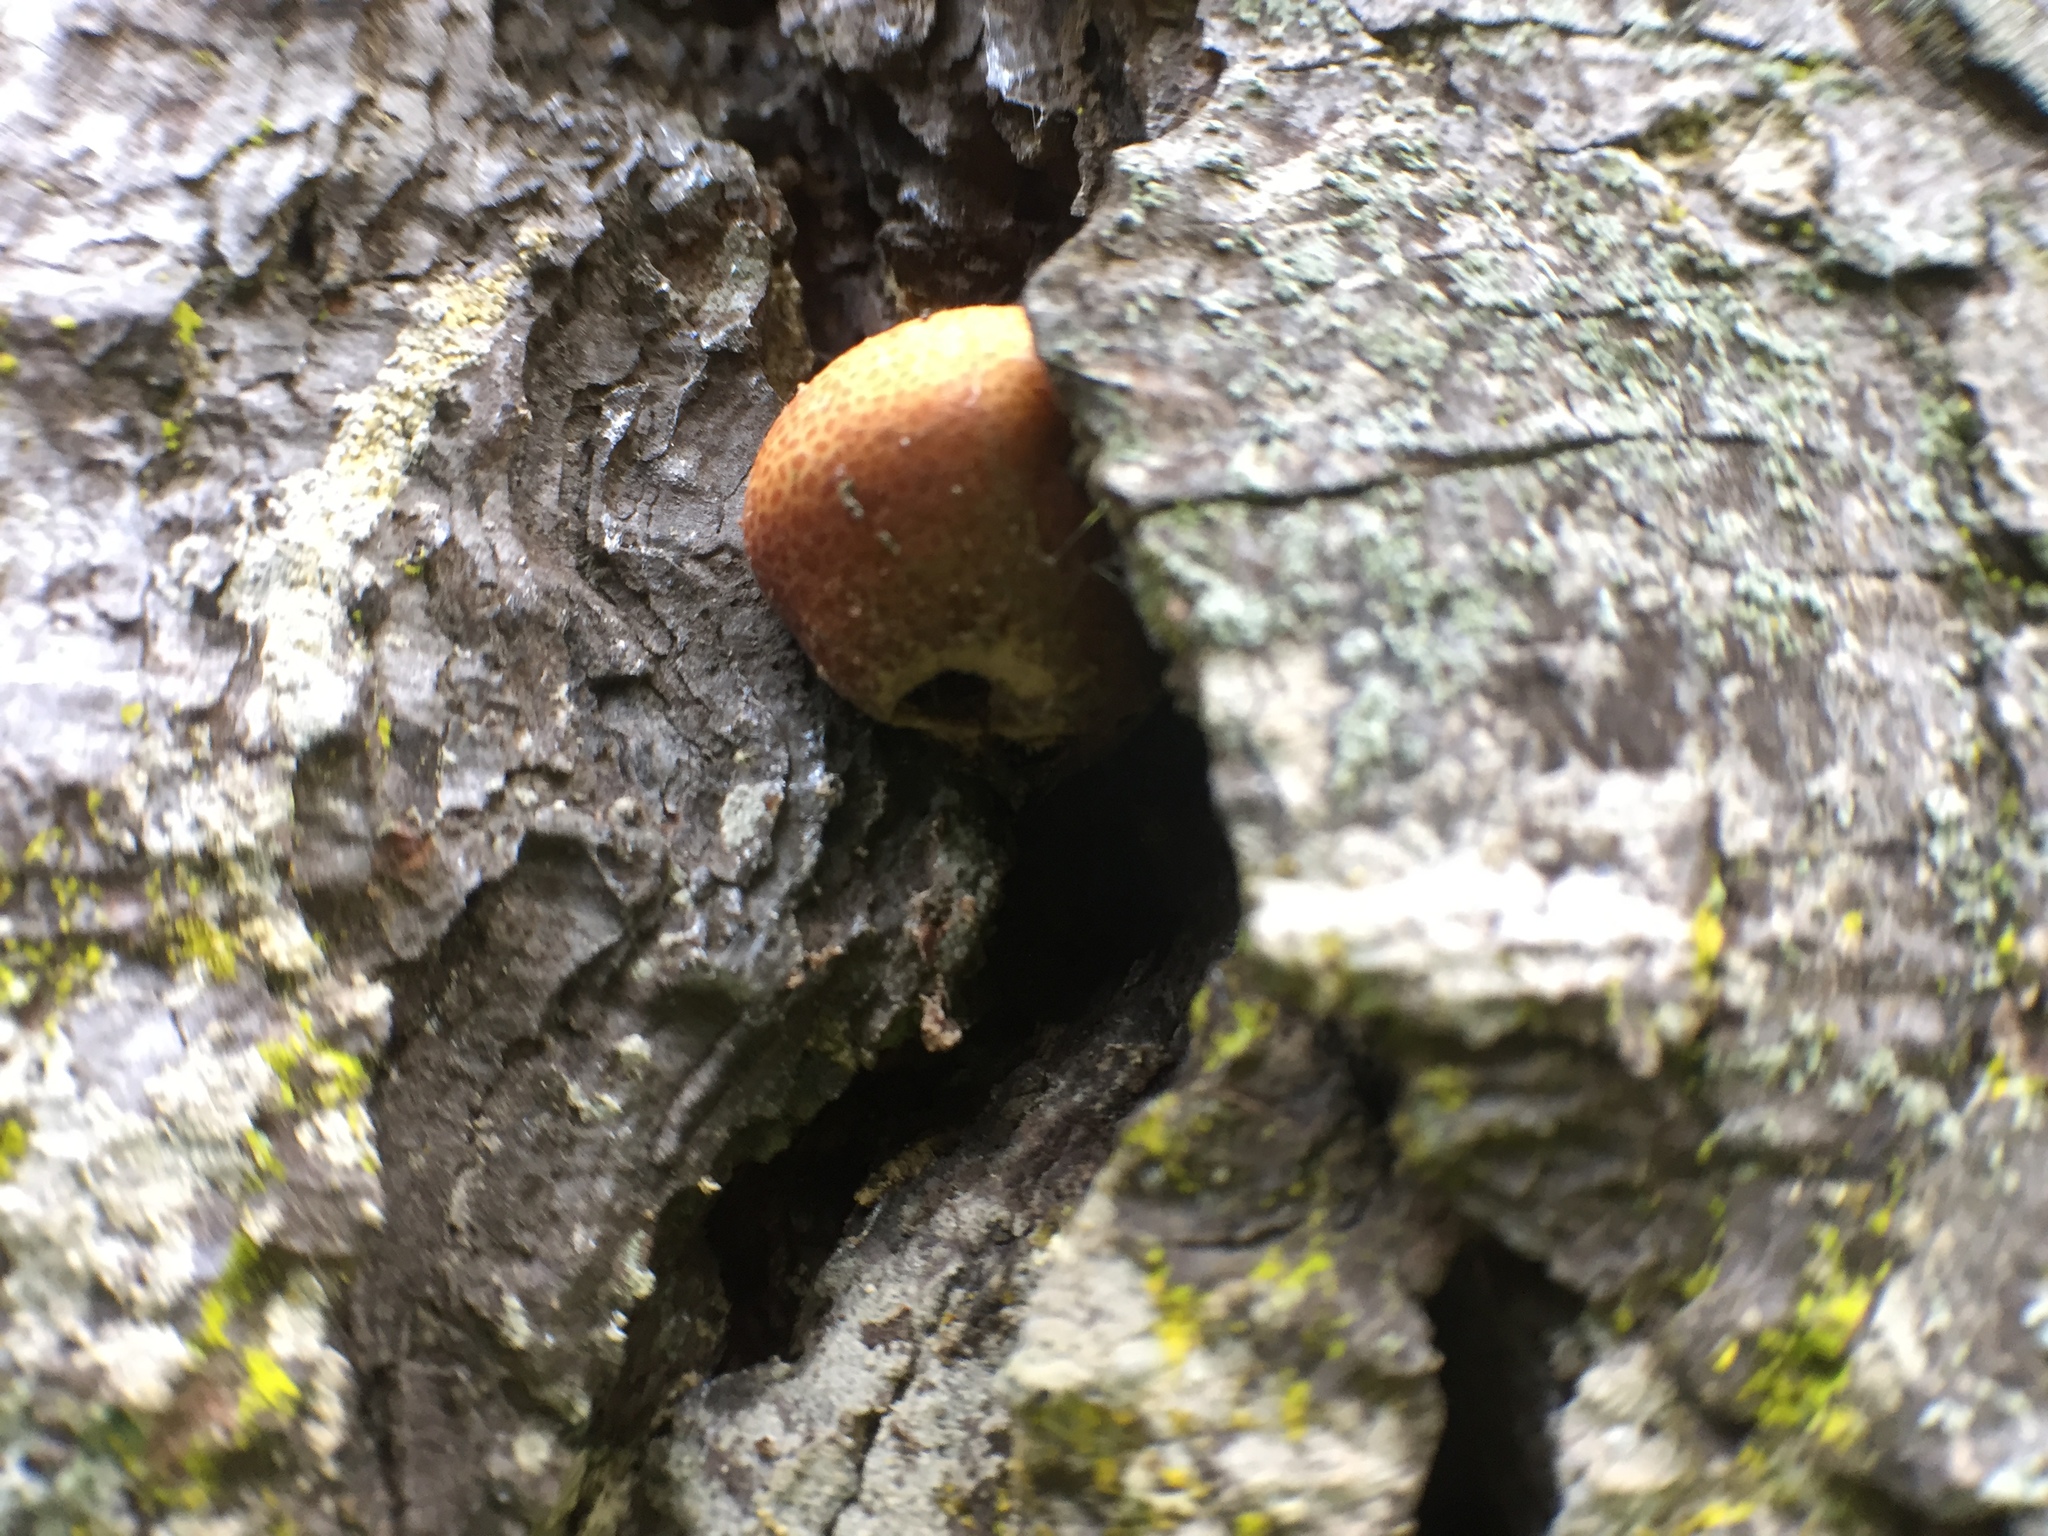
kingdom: Fungi
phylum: Basidiomycota
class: Agaricomycetes
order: Polyporales
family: Polyporaceae
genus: Cryptoporus
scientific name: Cryptoporus volvatus
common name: Veiled polypore
